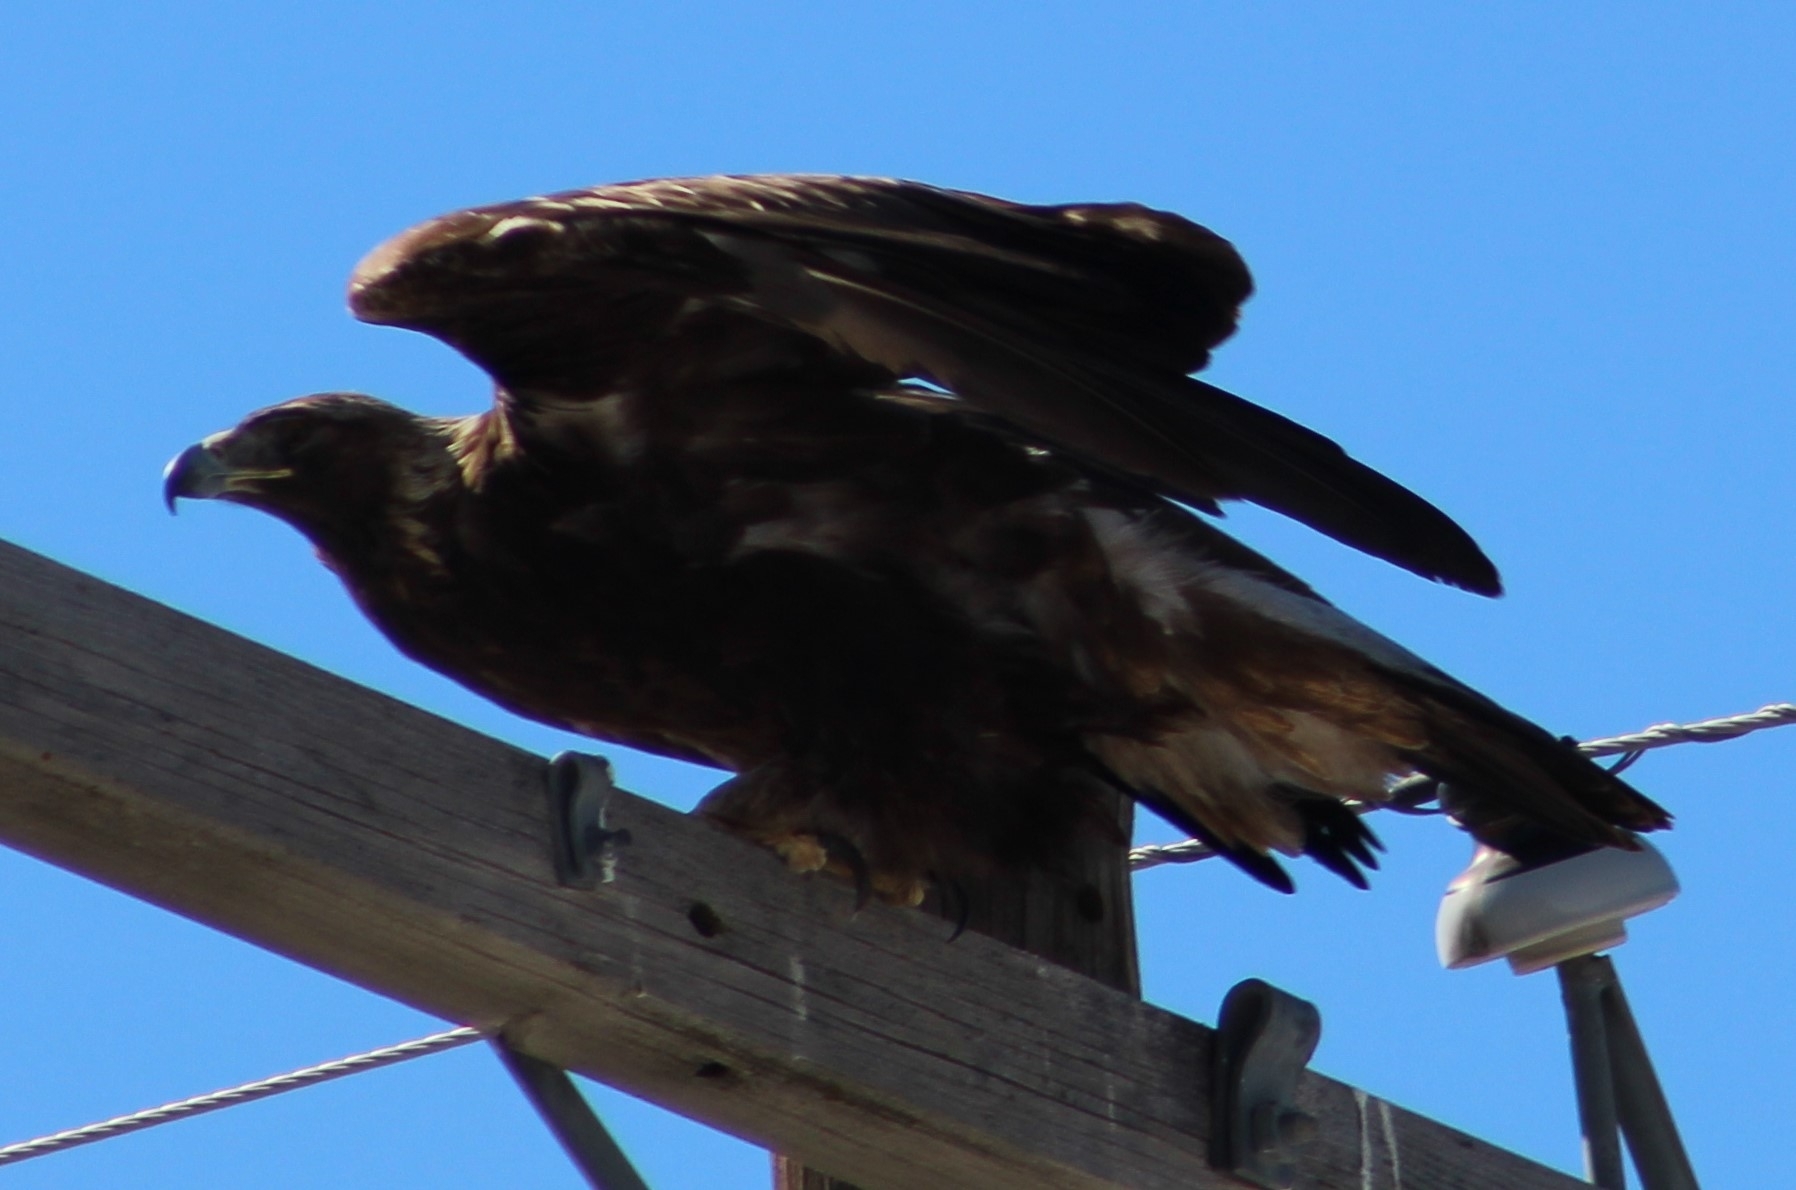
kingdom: Animalia
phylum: Chordata
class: Aves
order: Accipitriformes
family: Accipitridae
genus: Aquila
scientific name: Aquila chrysaetos
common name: Golden eagle
